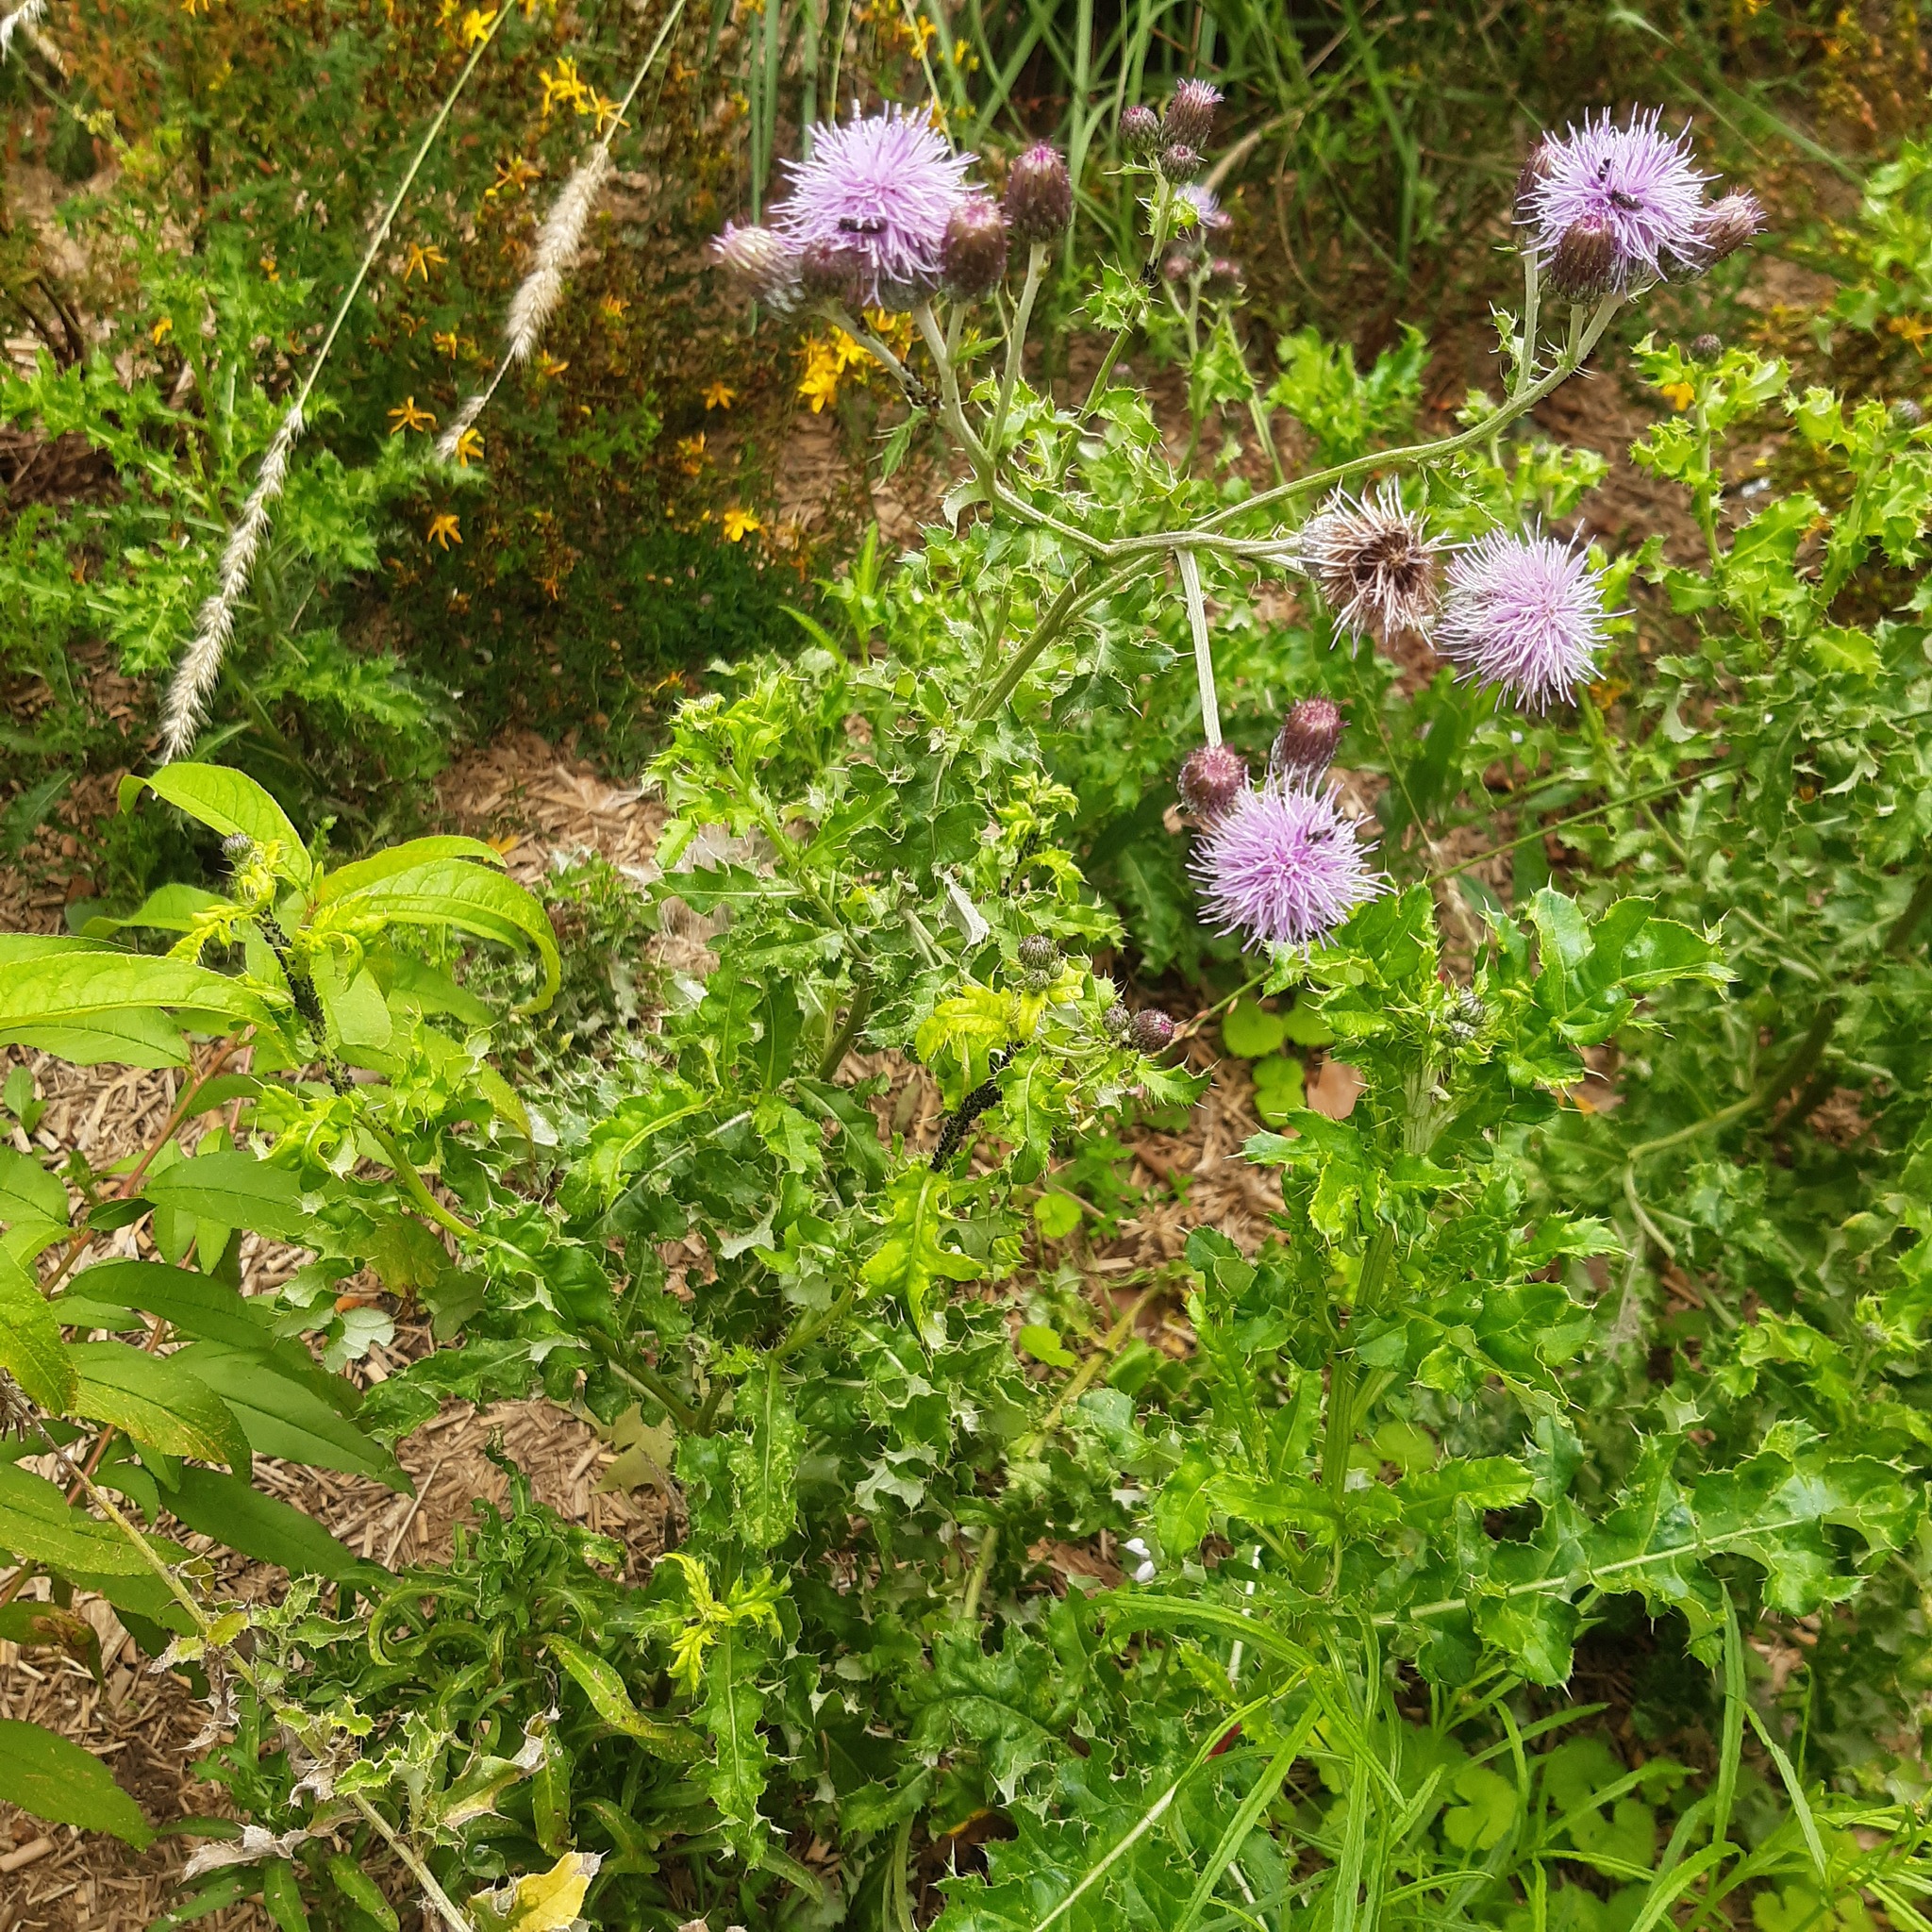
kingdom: Plantae
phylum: Tracheophyta
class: Magnoliopsida
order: Asterales
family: Asteraceae
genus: Cirsium
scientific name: Cirsium arvense
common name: Creeping thistle
